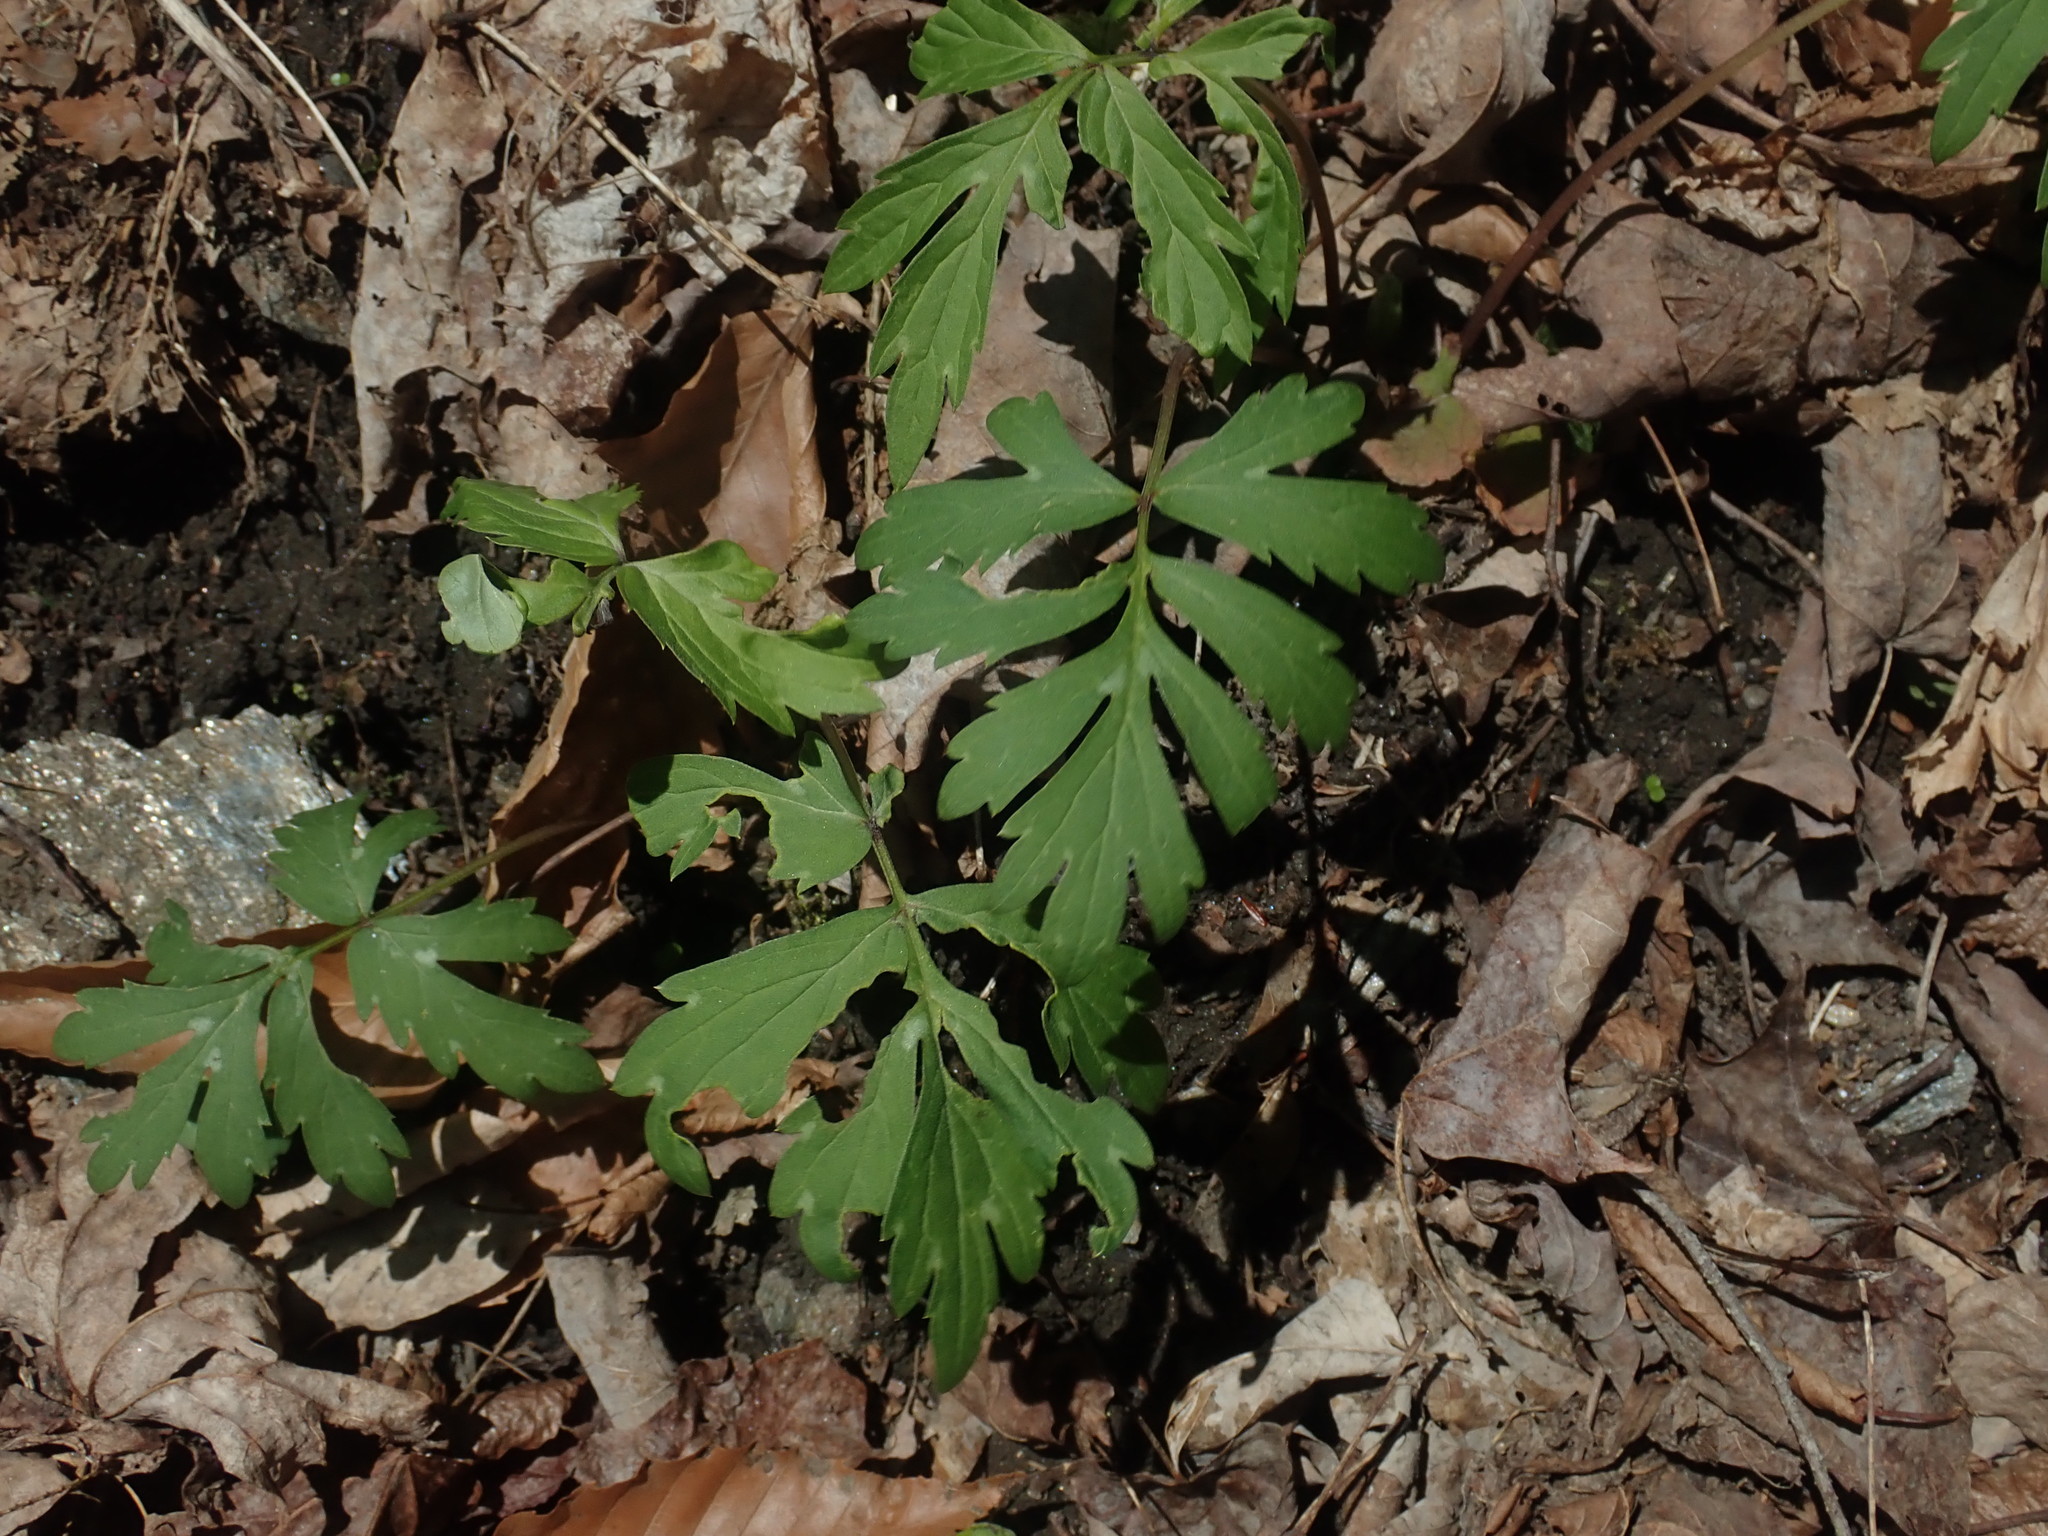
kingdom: Plantae
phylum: Tracheophyta
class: Magnoliopsida
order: Boraginales
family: Hydrophyllaceae
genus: Hydrophyllum
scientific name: Hydrophyllum virginianum
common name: Virginia waterleaf
